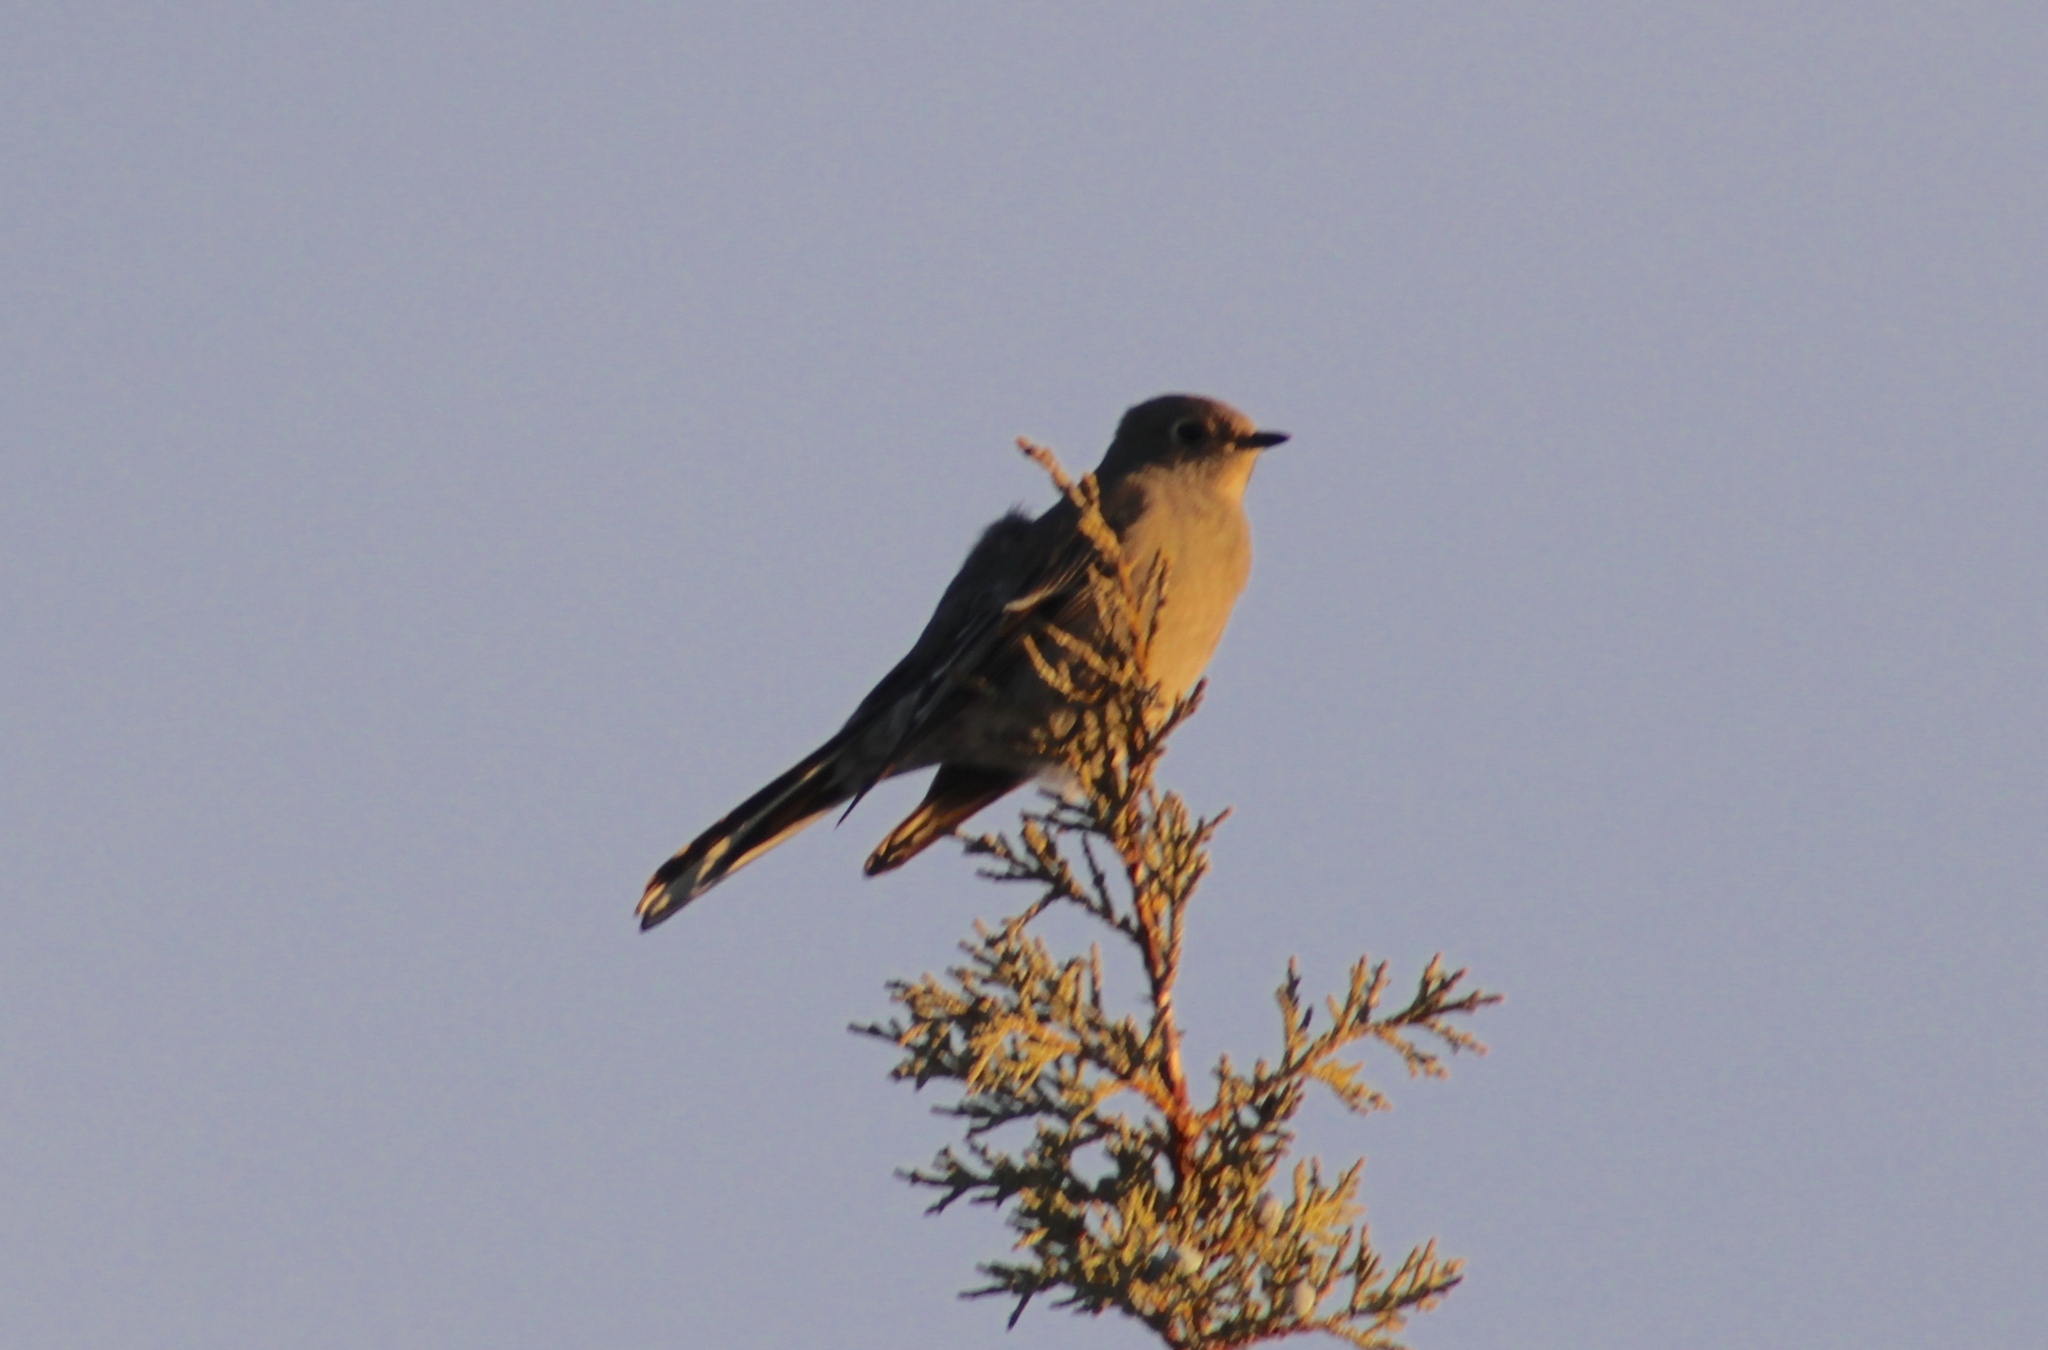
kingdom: Animalia
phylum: Chordata
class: Aves
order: Passeriformes
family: Turdidae
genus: Myadestes
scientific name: Myadestes townsendi
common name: Townsend's solitaire
